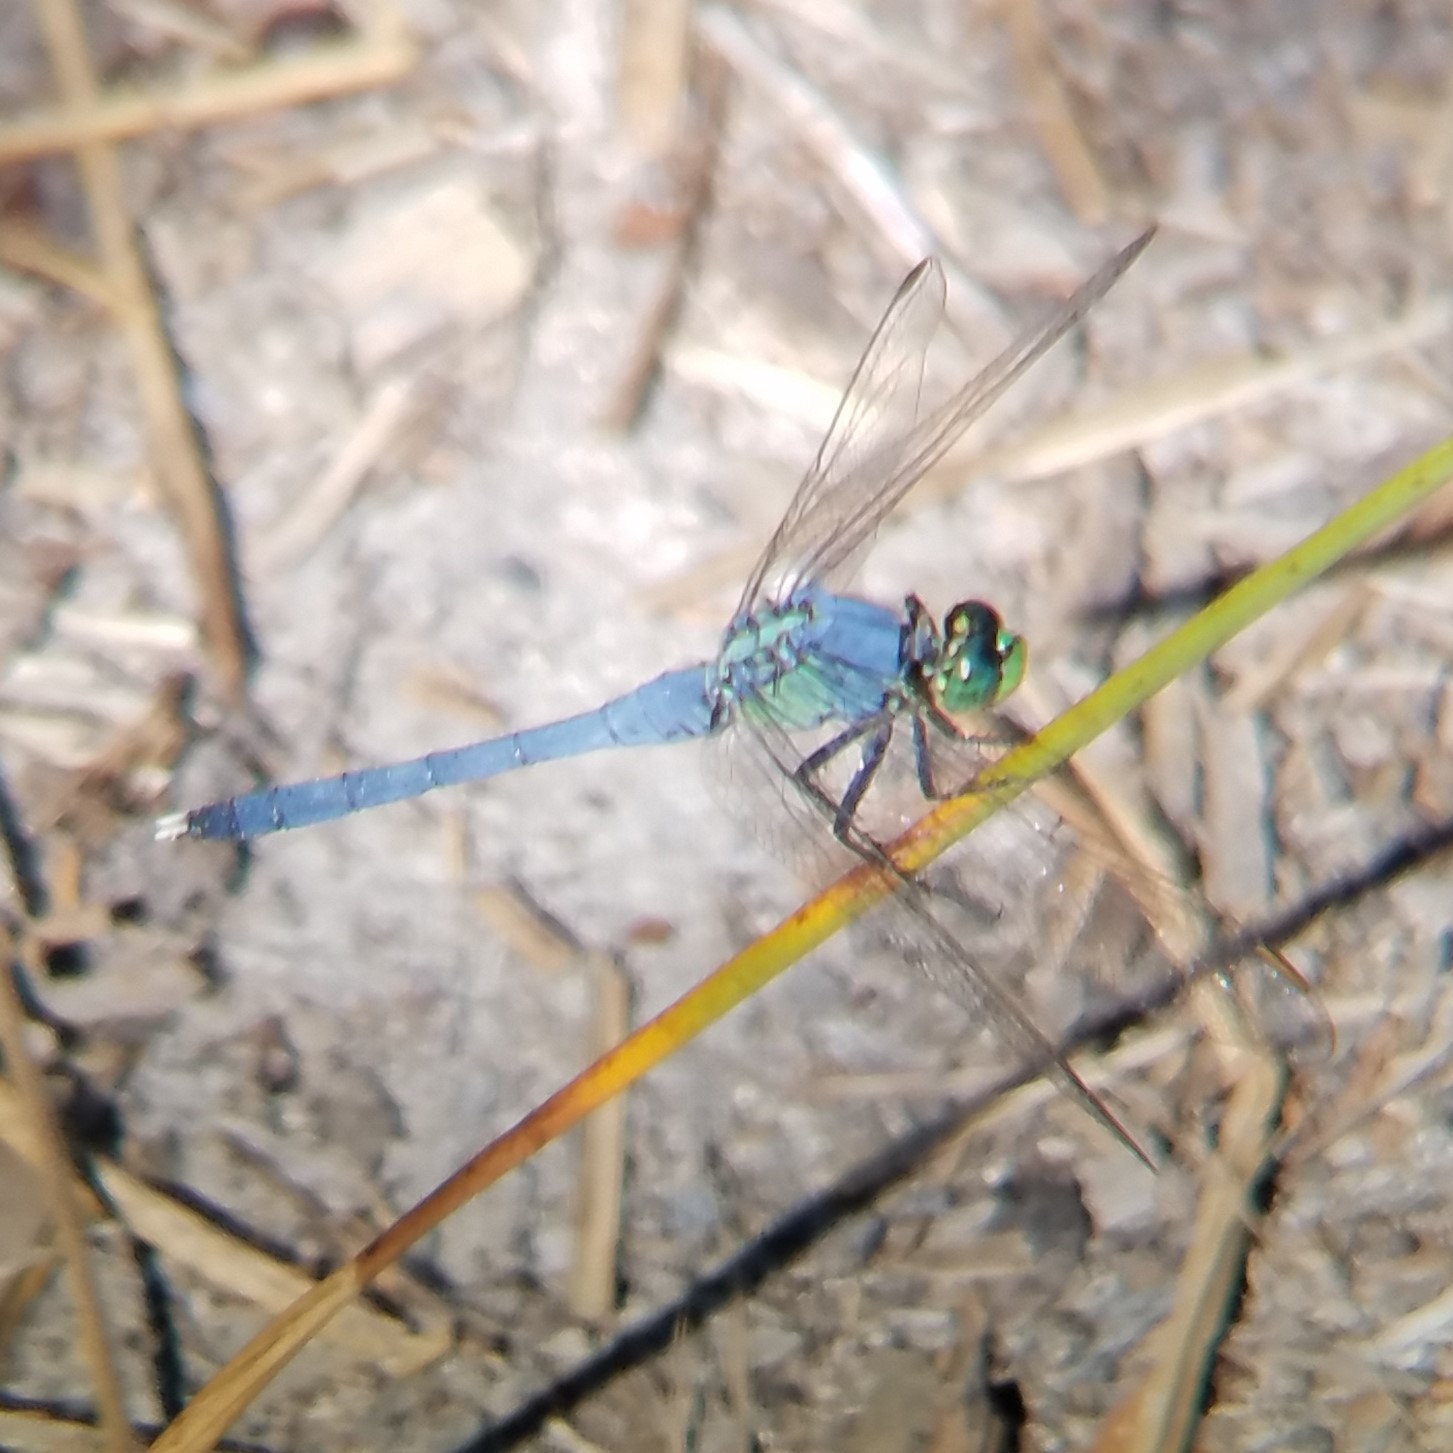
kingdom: Animalia
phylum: Arthropoda
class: Insecta
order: Odonata
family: Libellulidae
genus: Erythemis
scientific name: Erythemis simplicicollis
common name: Eastern pondhawk
